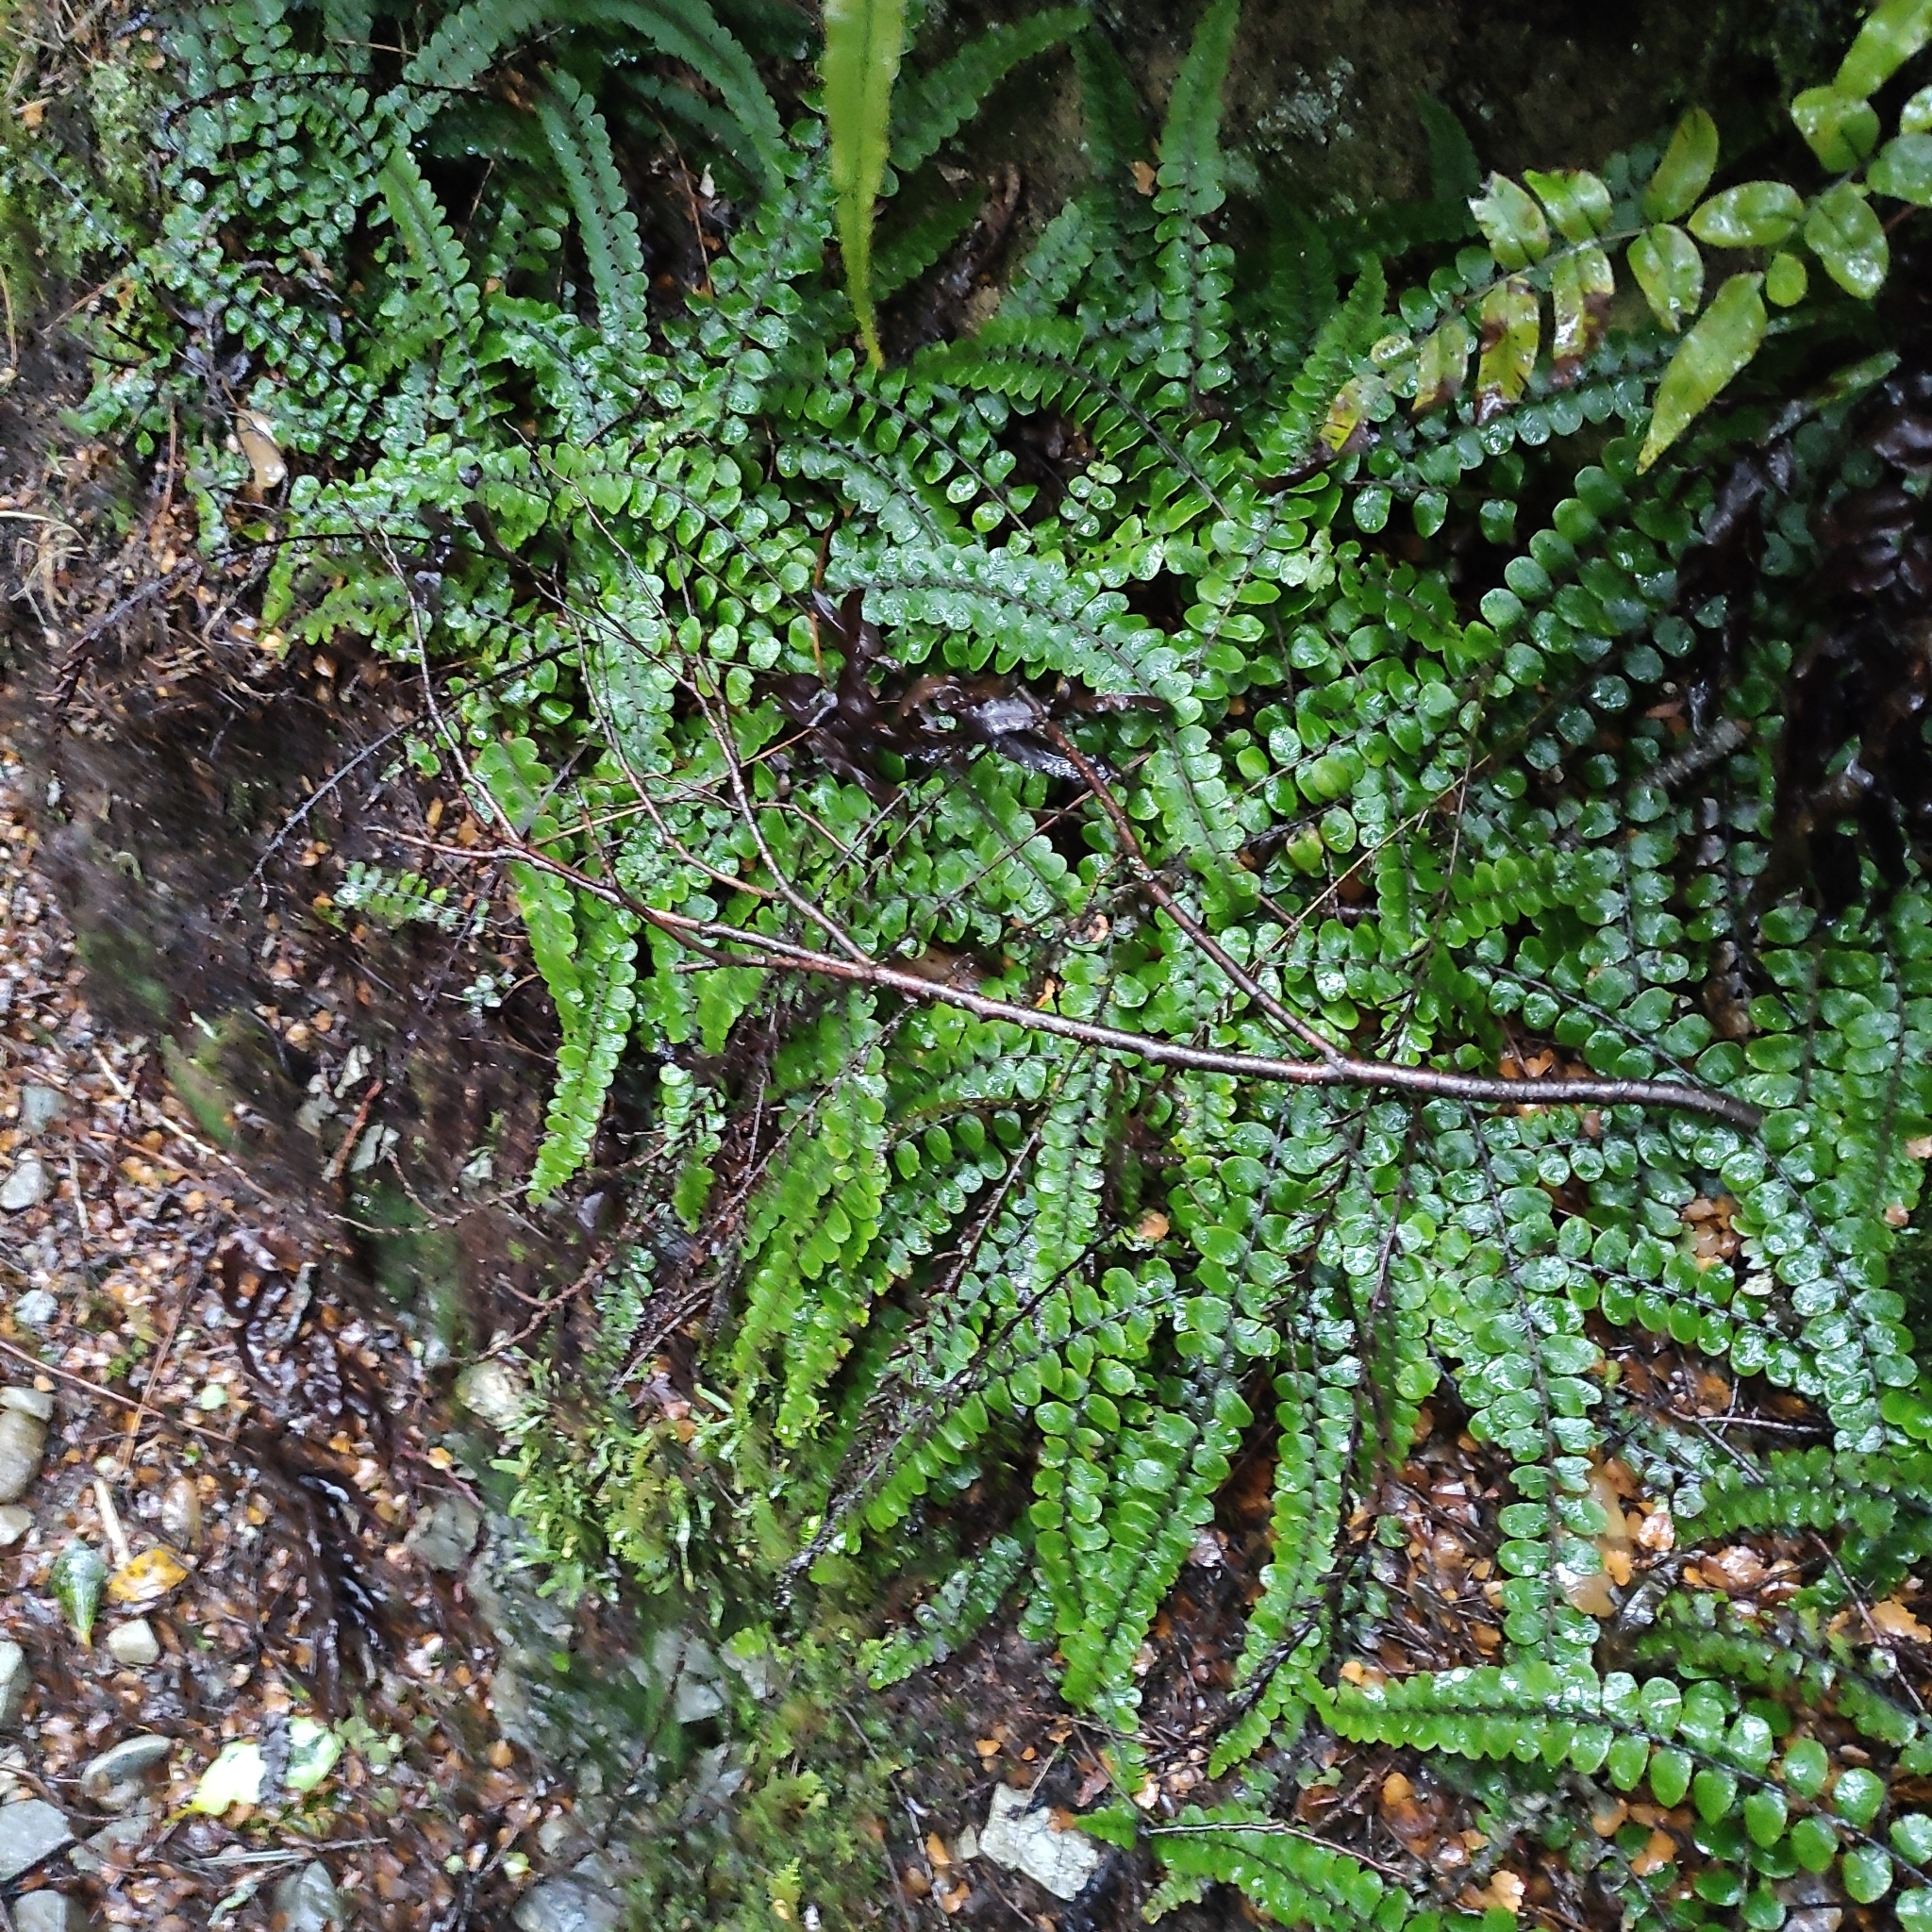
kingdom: Plantae
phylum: Tracheophyta
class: Polypodiopsida
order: Polypodiales
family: Blechnaceae
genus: Cranfillia
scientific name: Cranfillia fluviatilis
